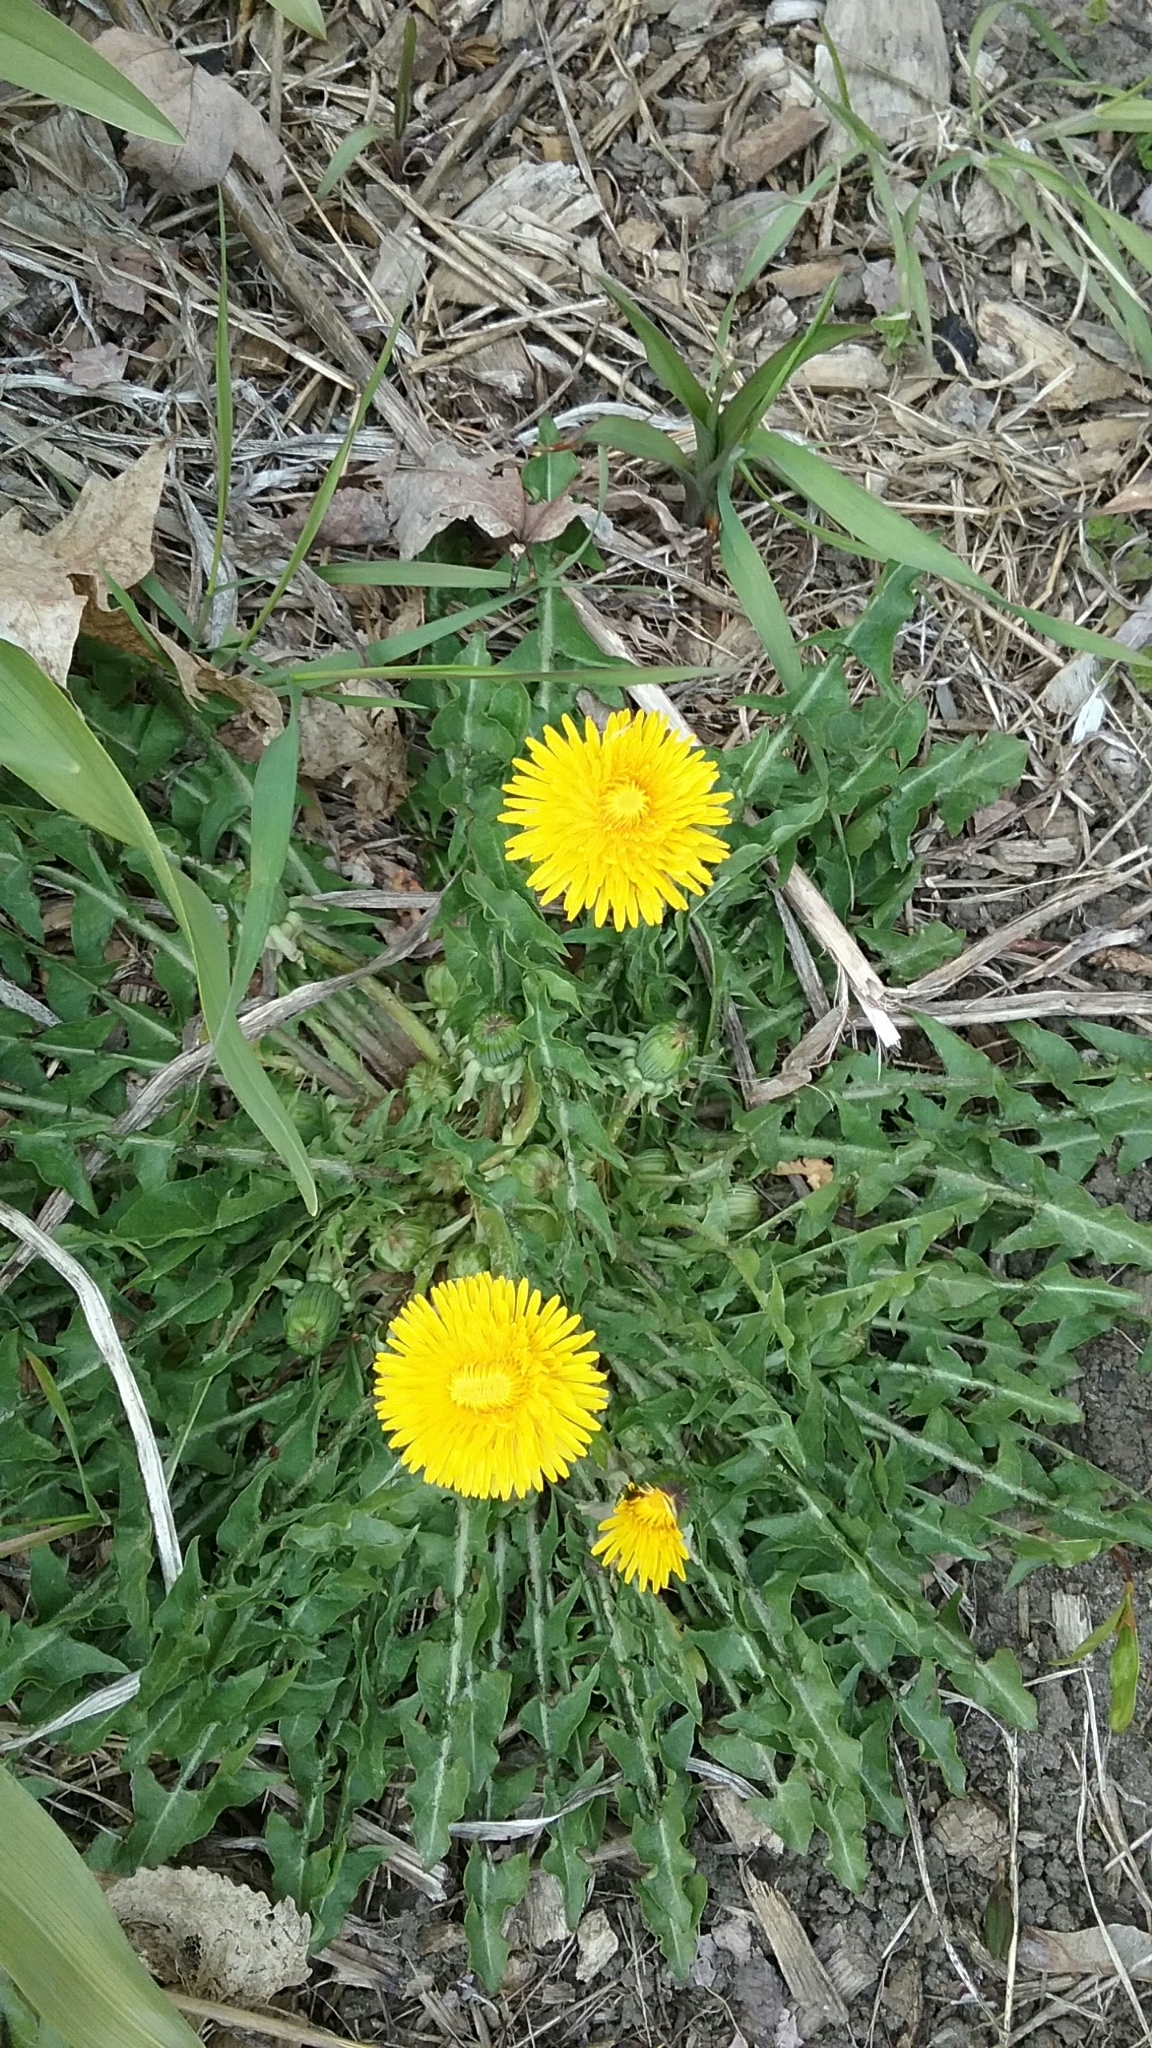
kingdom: Plantae
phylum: Tracheophyta
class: Magnoliopsida
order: Asterales
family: Asteraceae
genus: Taraxacum
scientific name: Taraxacum officinale
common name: Common dandelion
